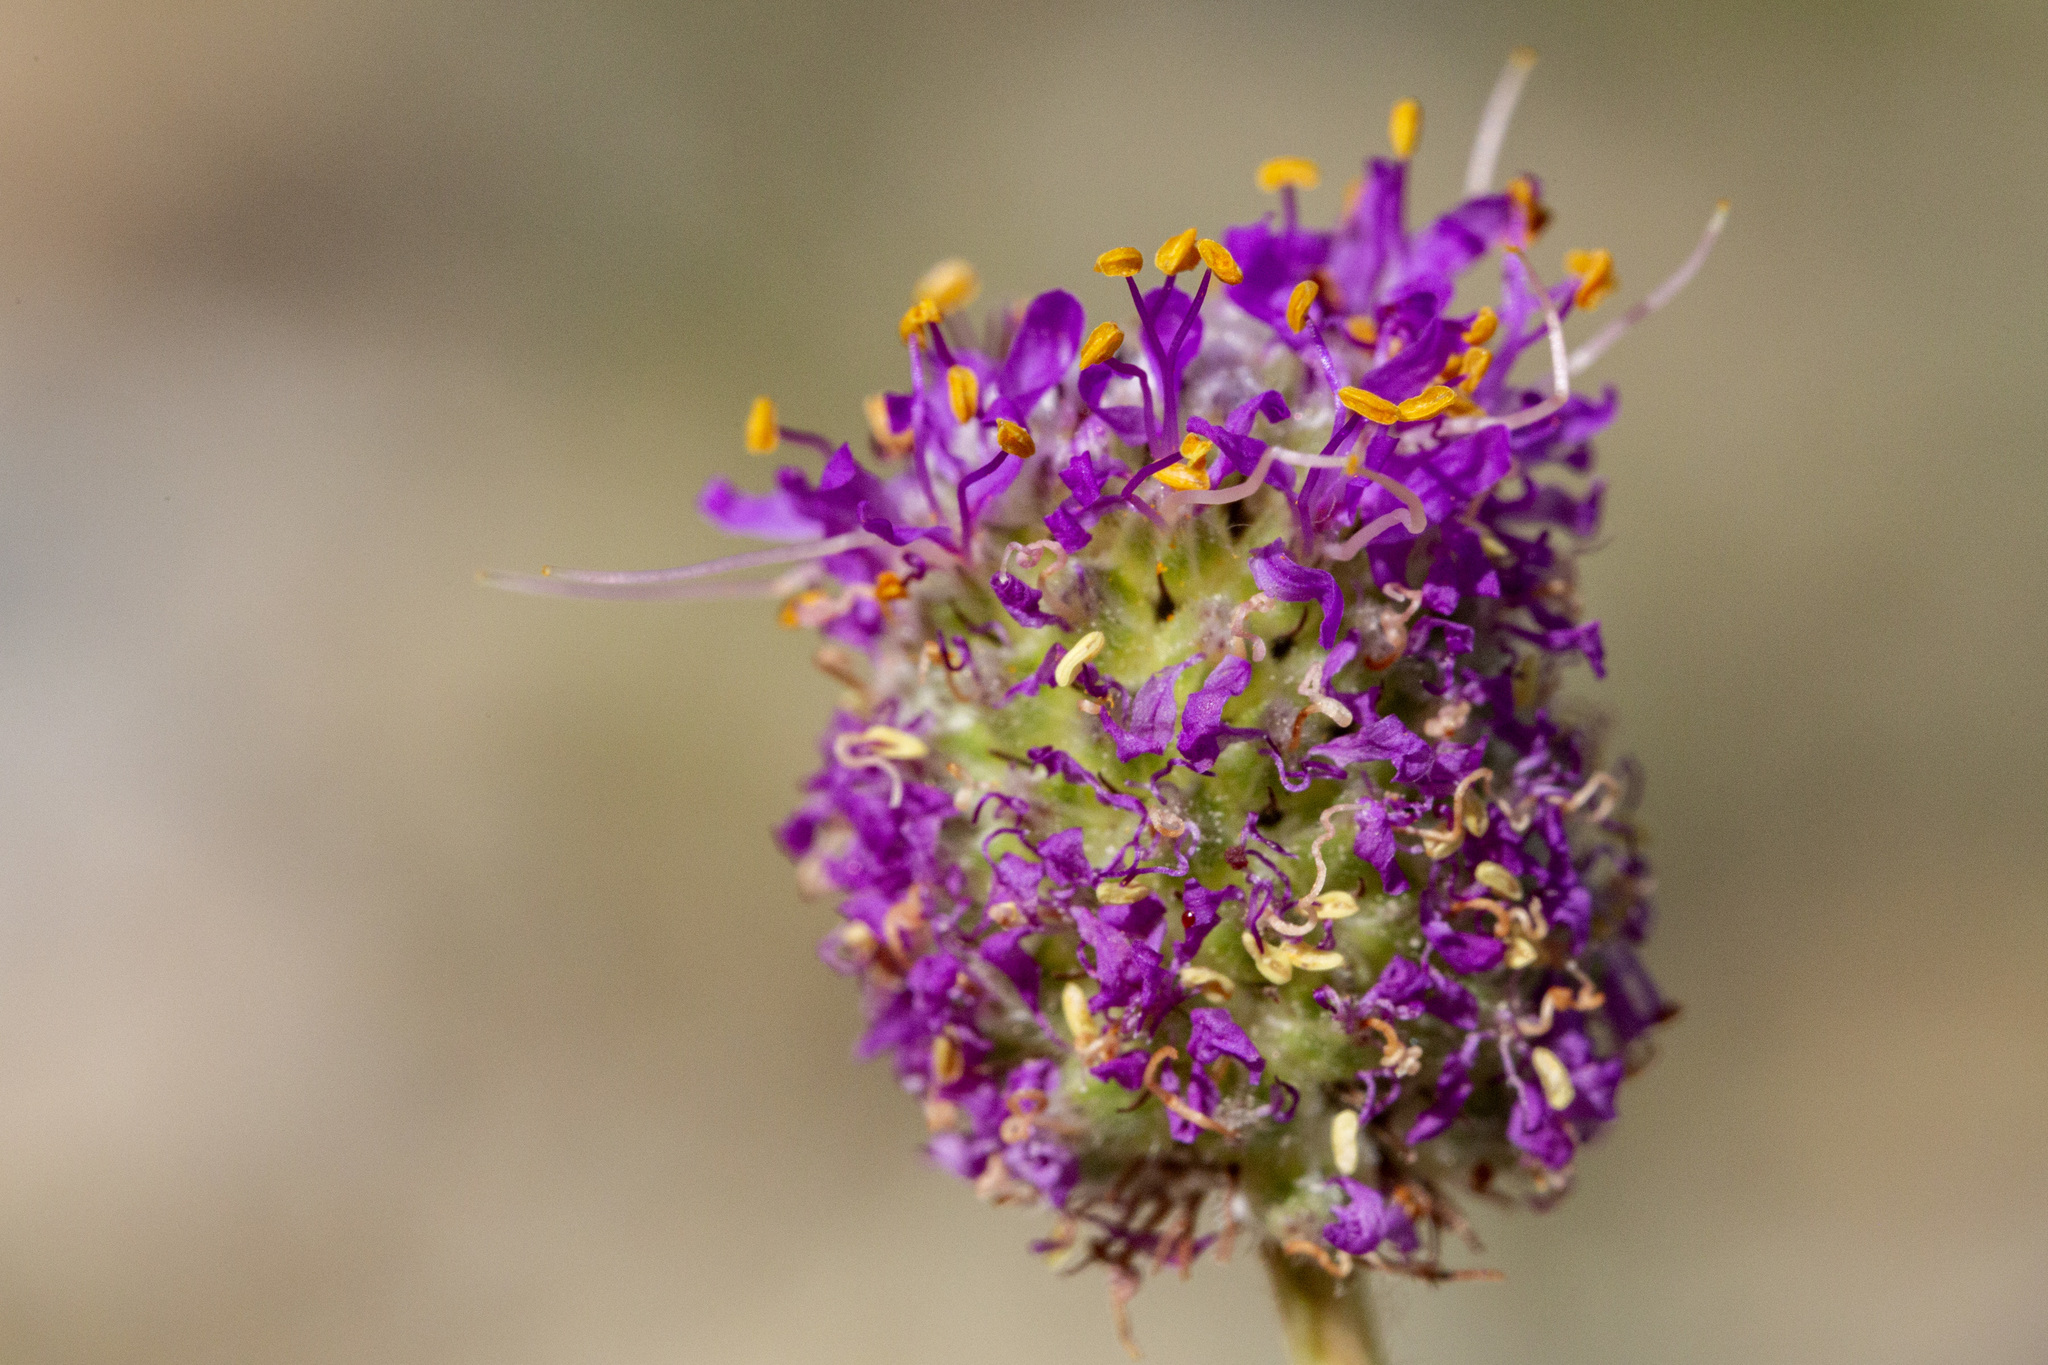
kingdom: Plantae
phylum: Tracheophyta
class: Magnoliopsida
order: Fabales
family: Fabaceae
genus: Dalea
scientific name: Dalea purpurea
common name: Purple prairie-clover
